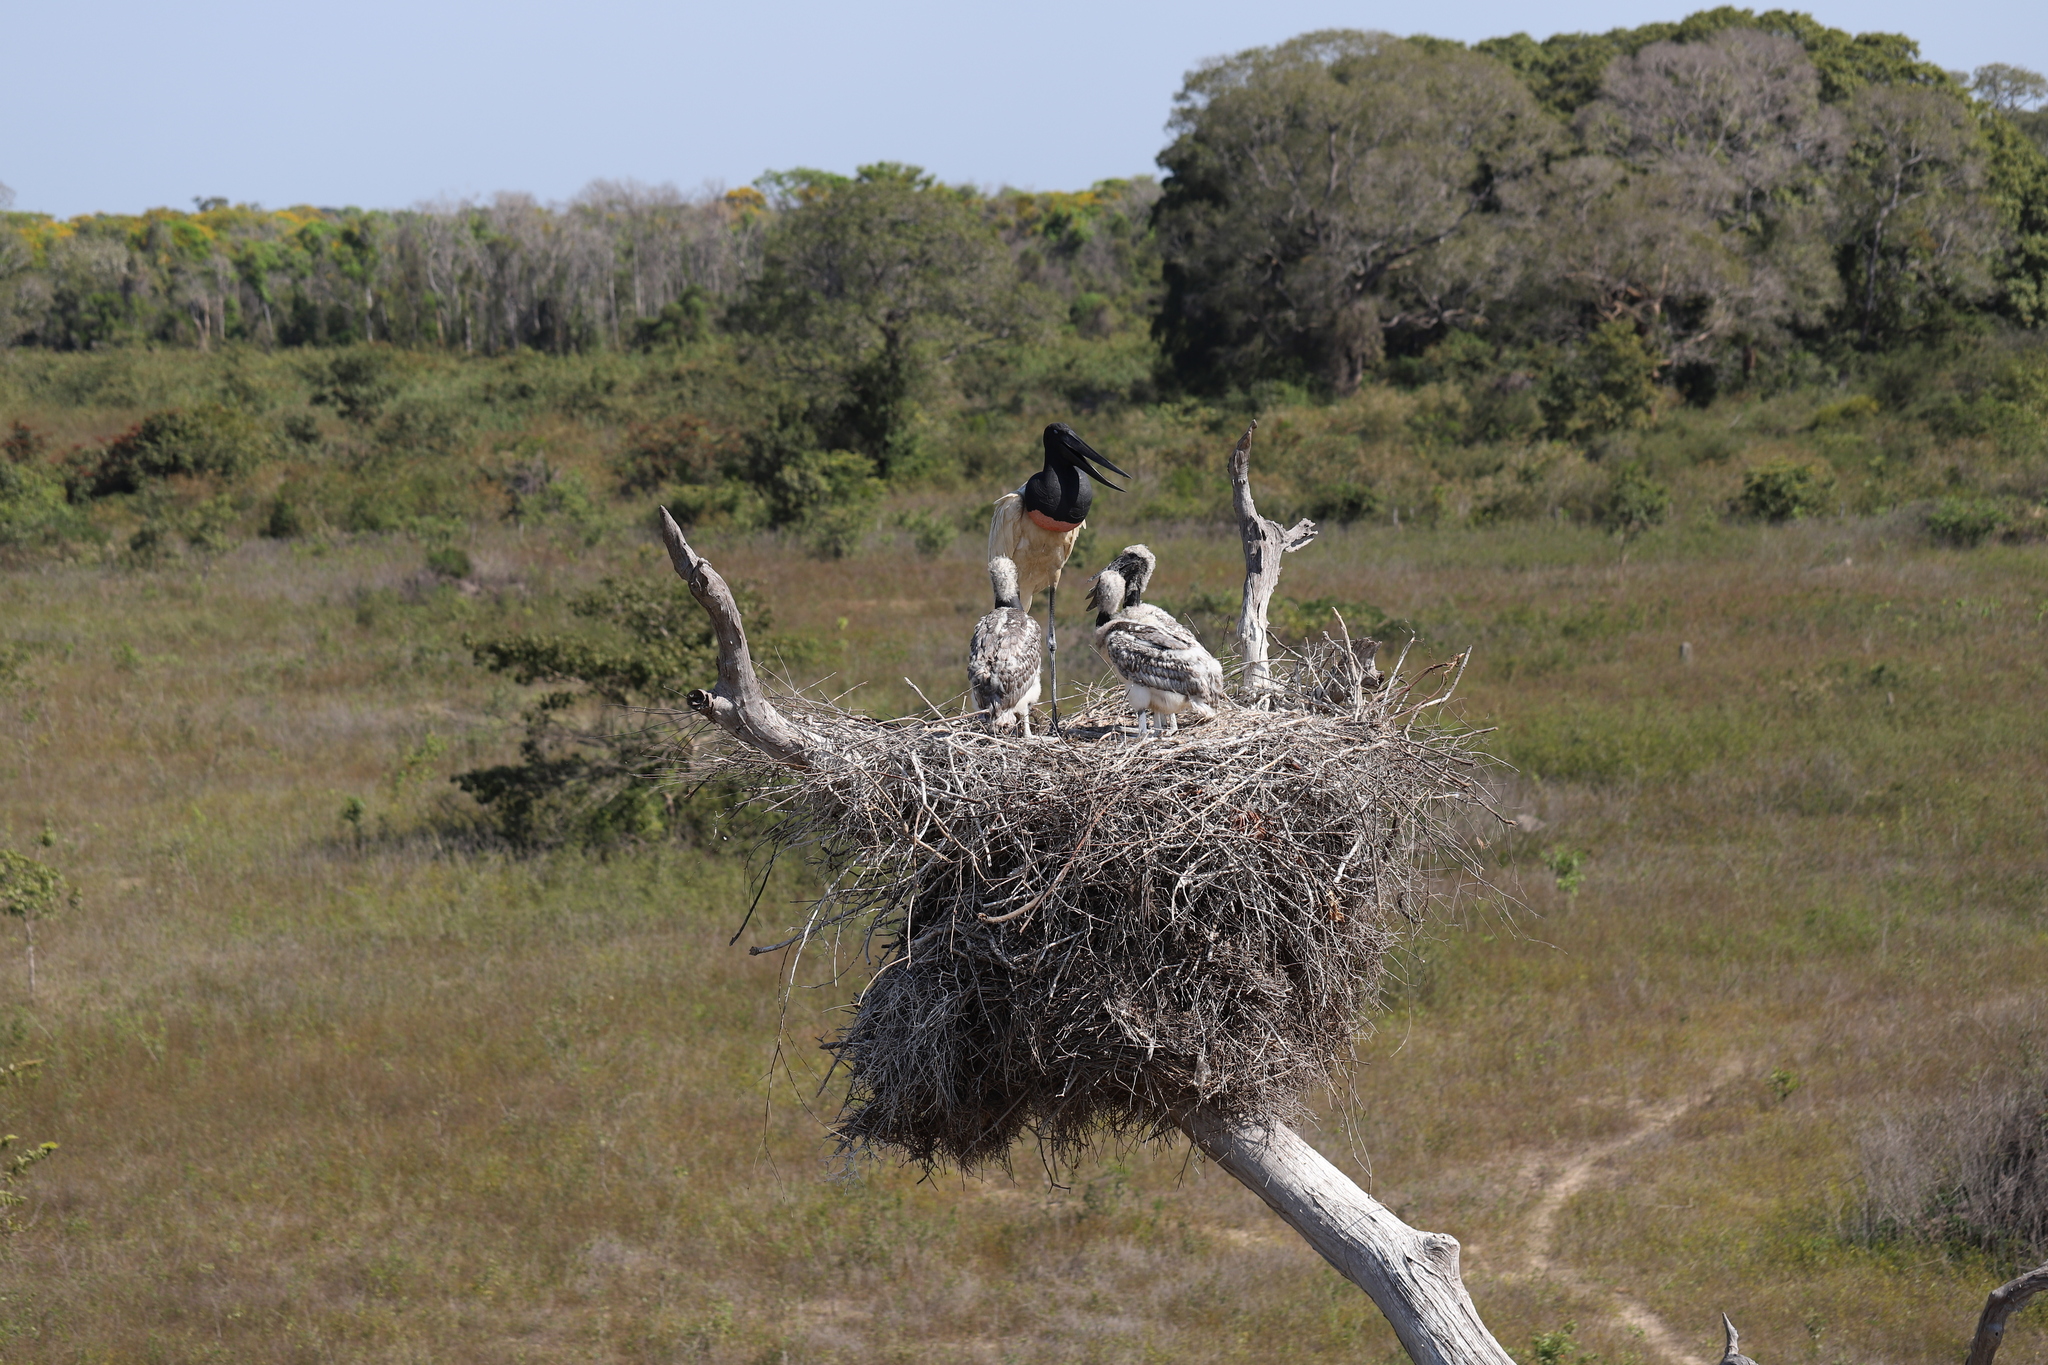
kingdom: Animalia
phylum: Chordata
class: Aves
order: Ciconiiformes
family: Ciconiidae
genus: Jabiru
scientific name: Jabiru mycteria
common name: Jabiru
